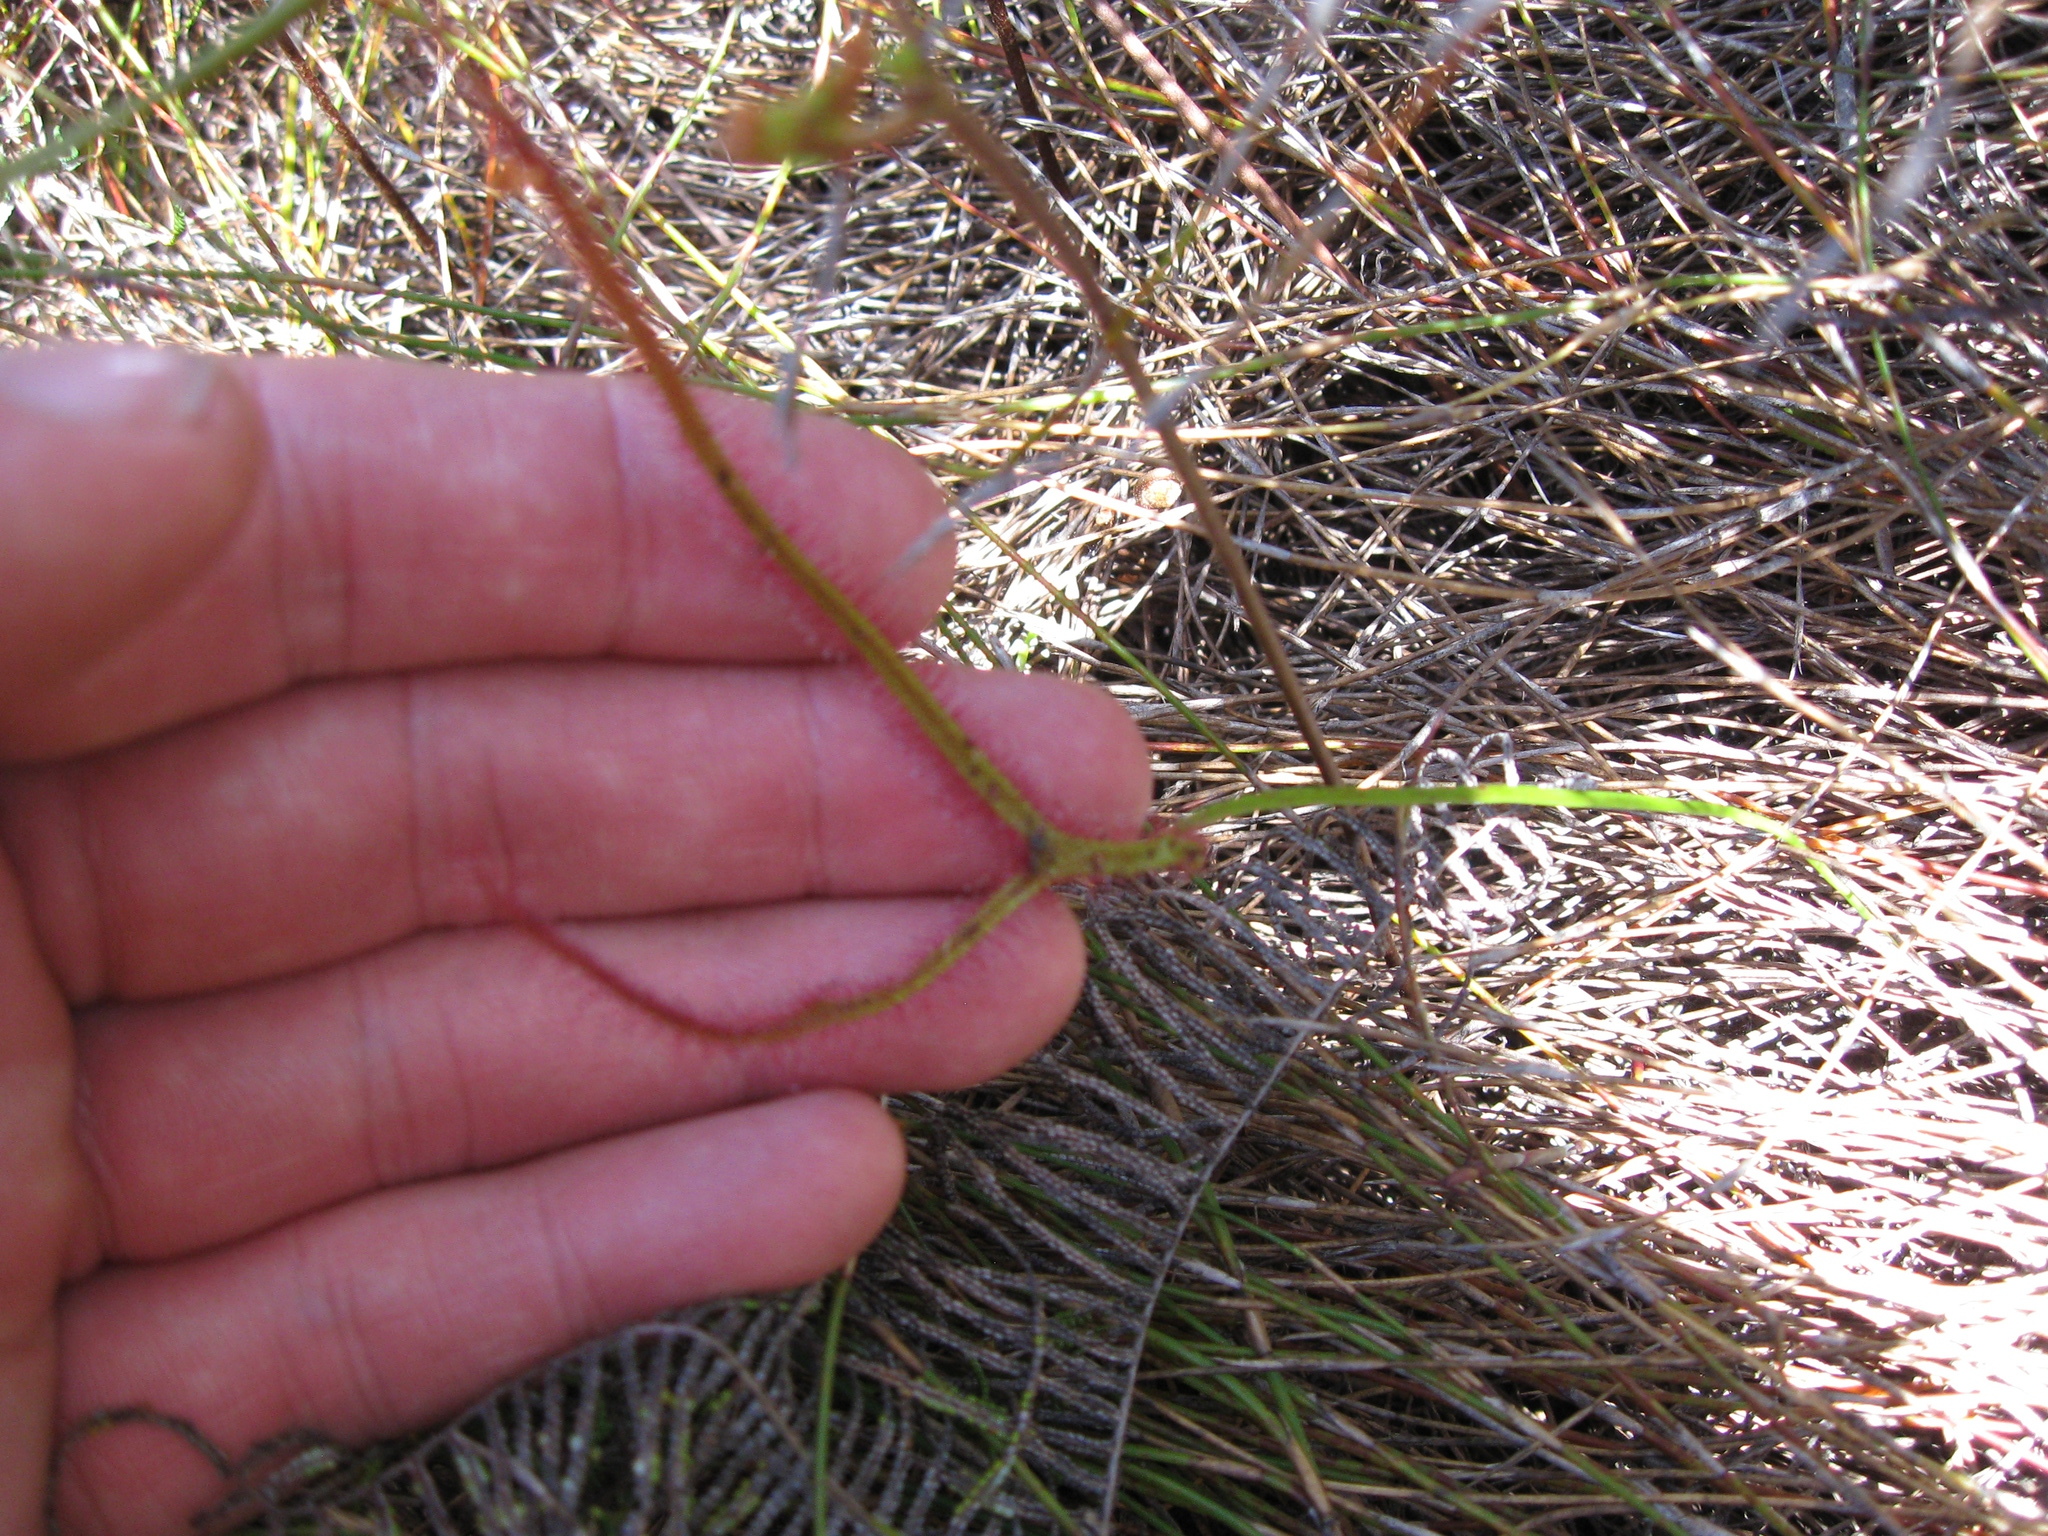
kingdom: Plantae
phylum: Tracheophyta
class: Magnoliopsida
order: Caryophyllales
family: Droseraceae
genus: Drosera
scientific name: Drosera binata
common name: Forked sundew
